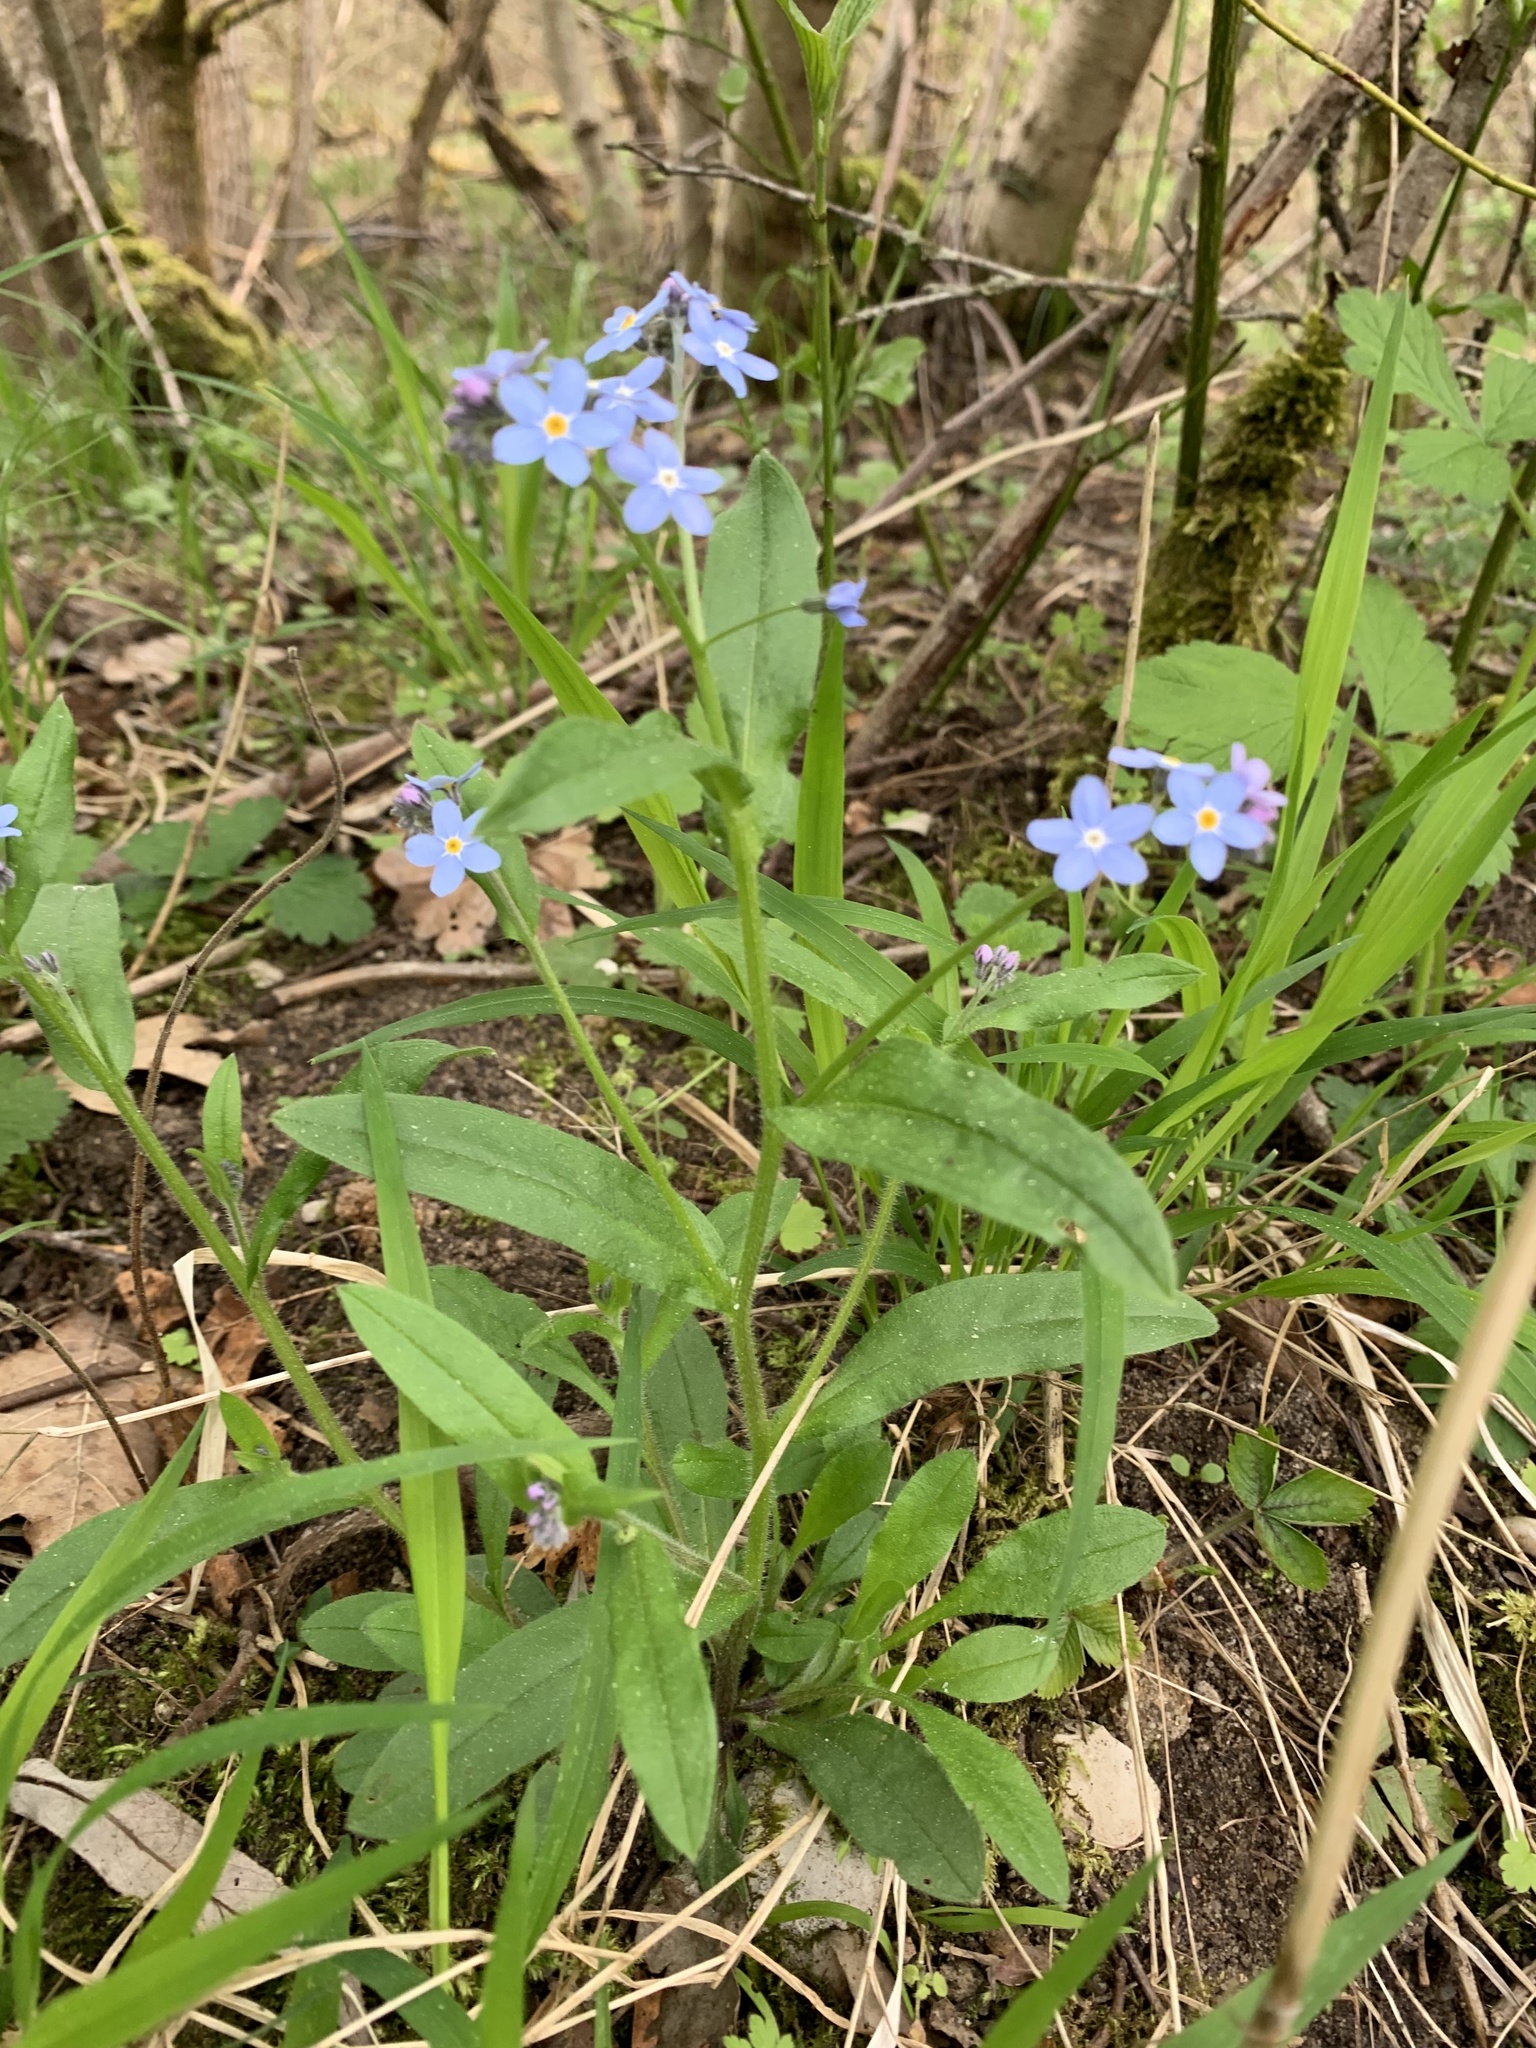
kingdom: Plantae
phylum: Tracheophyta
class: Magnoliopsida
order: Boraginales
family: Boraginaceae
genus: Myosotis
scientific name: Myosotis sylvatica
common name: Wood forget-me-not
